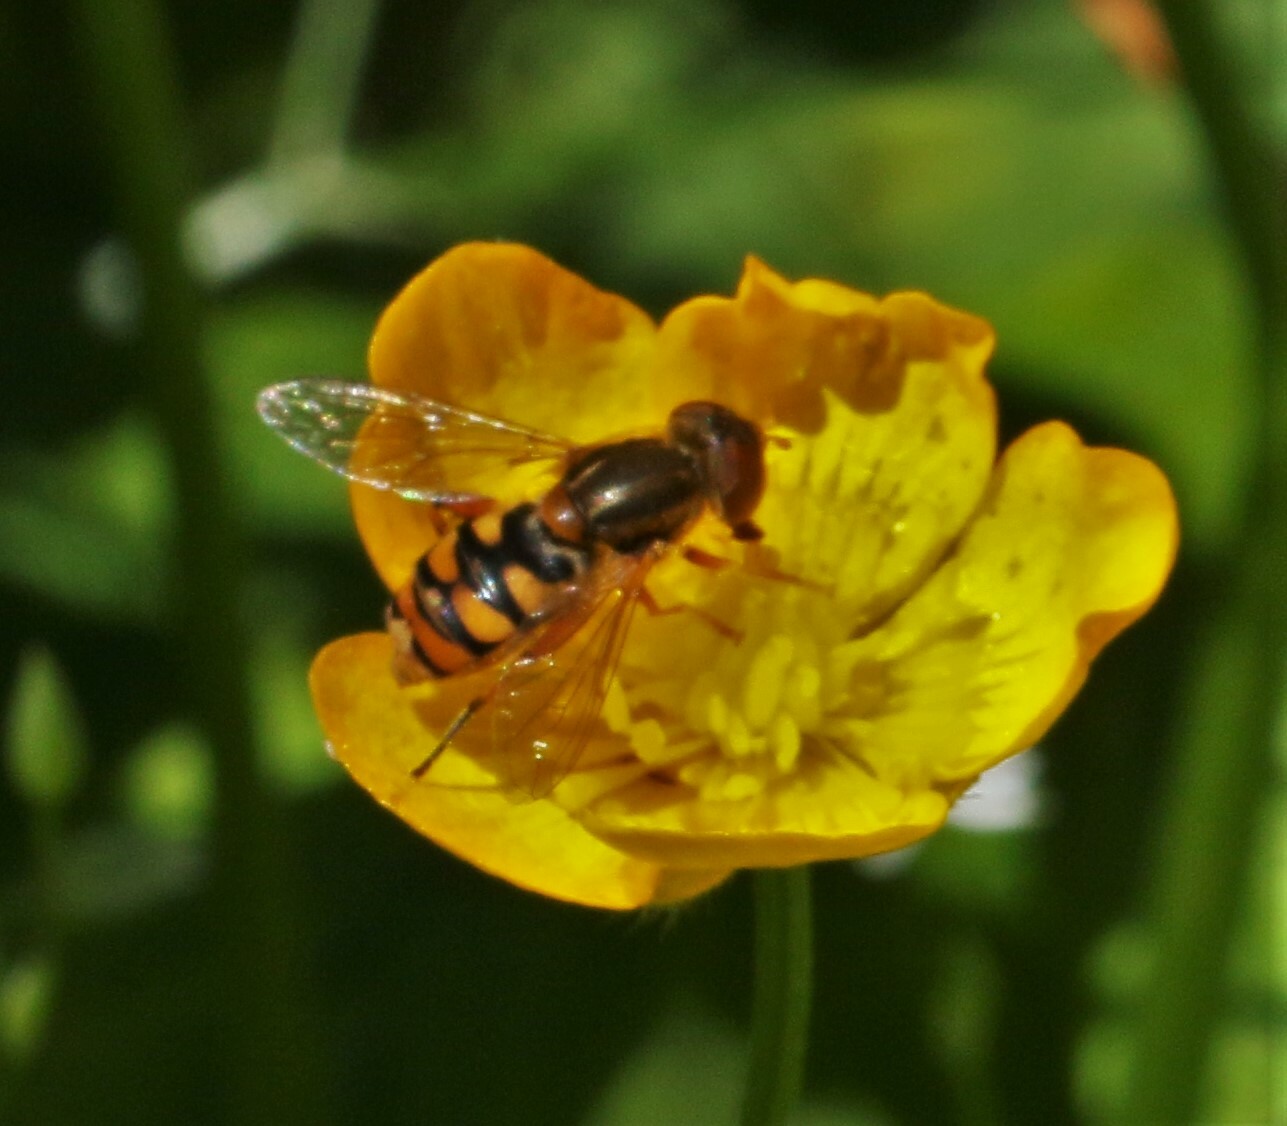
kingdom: Animalia
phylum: Arthropoda
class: Insecta
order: Diptera
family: Syrphidae
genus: Parhelophilus
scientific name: Parhelophilus obsoletus
